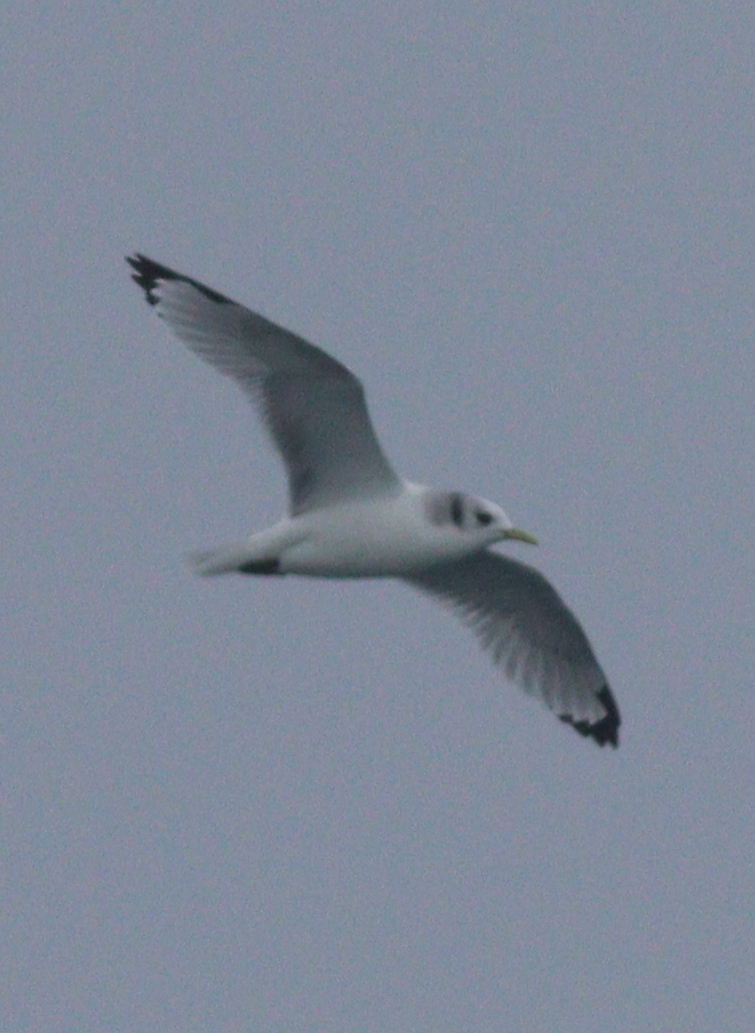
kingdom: Animalia
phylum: Chordata
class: Aves
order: Charadriiformes
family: Laridae
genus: Rissa
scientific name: Rissa tridactyla
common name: Black-legged kittiwake
